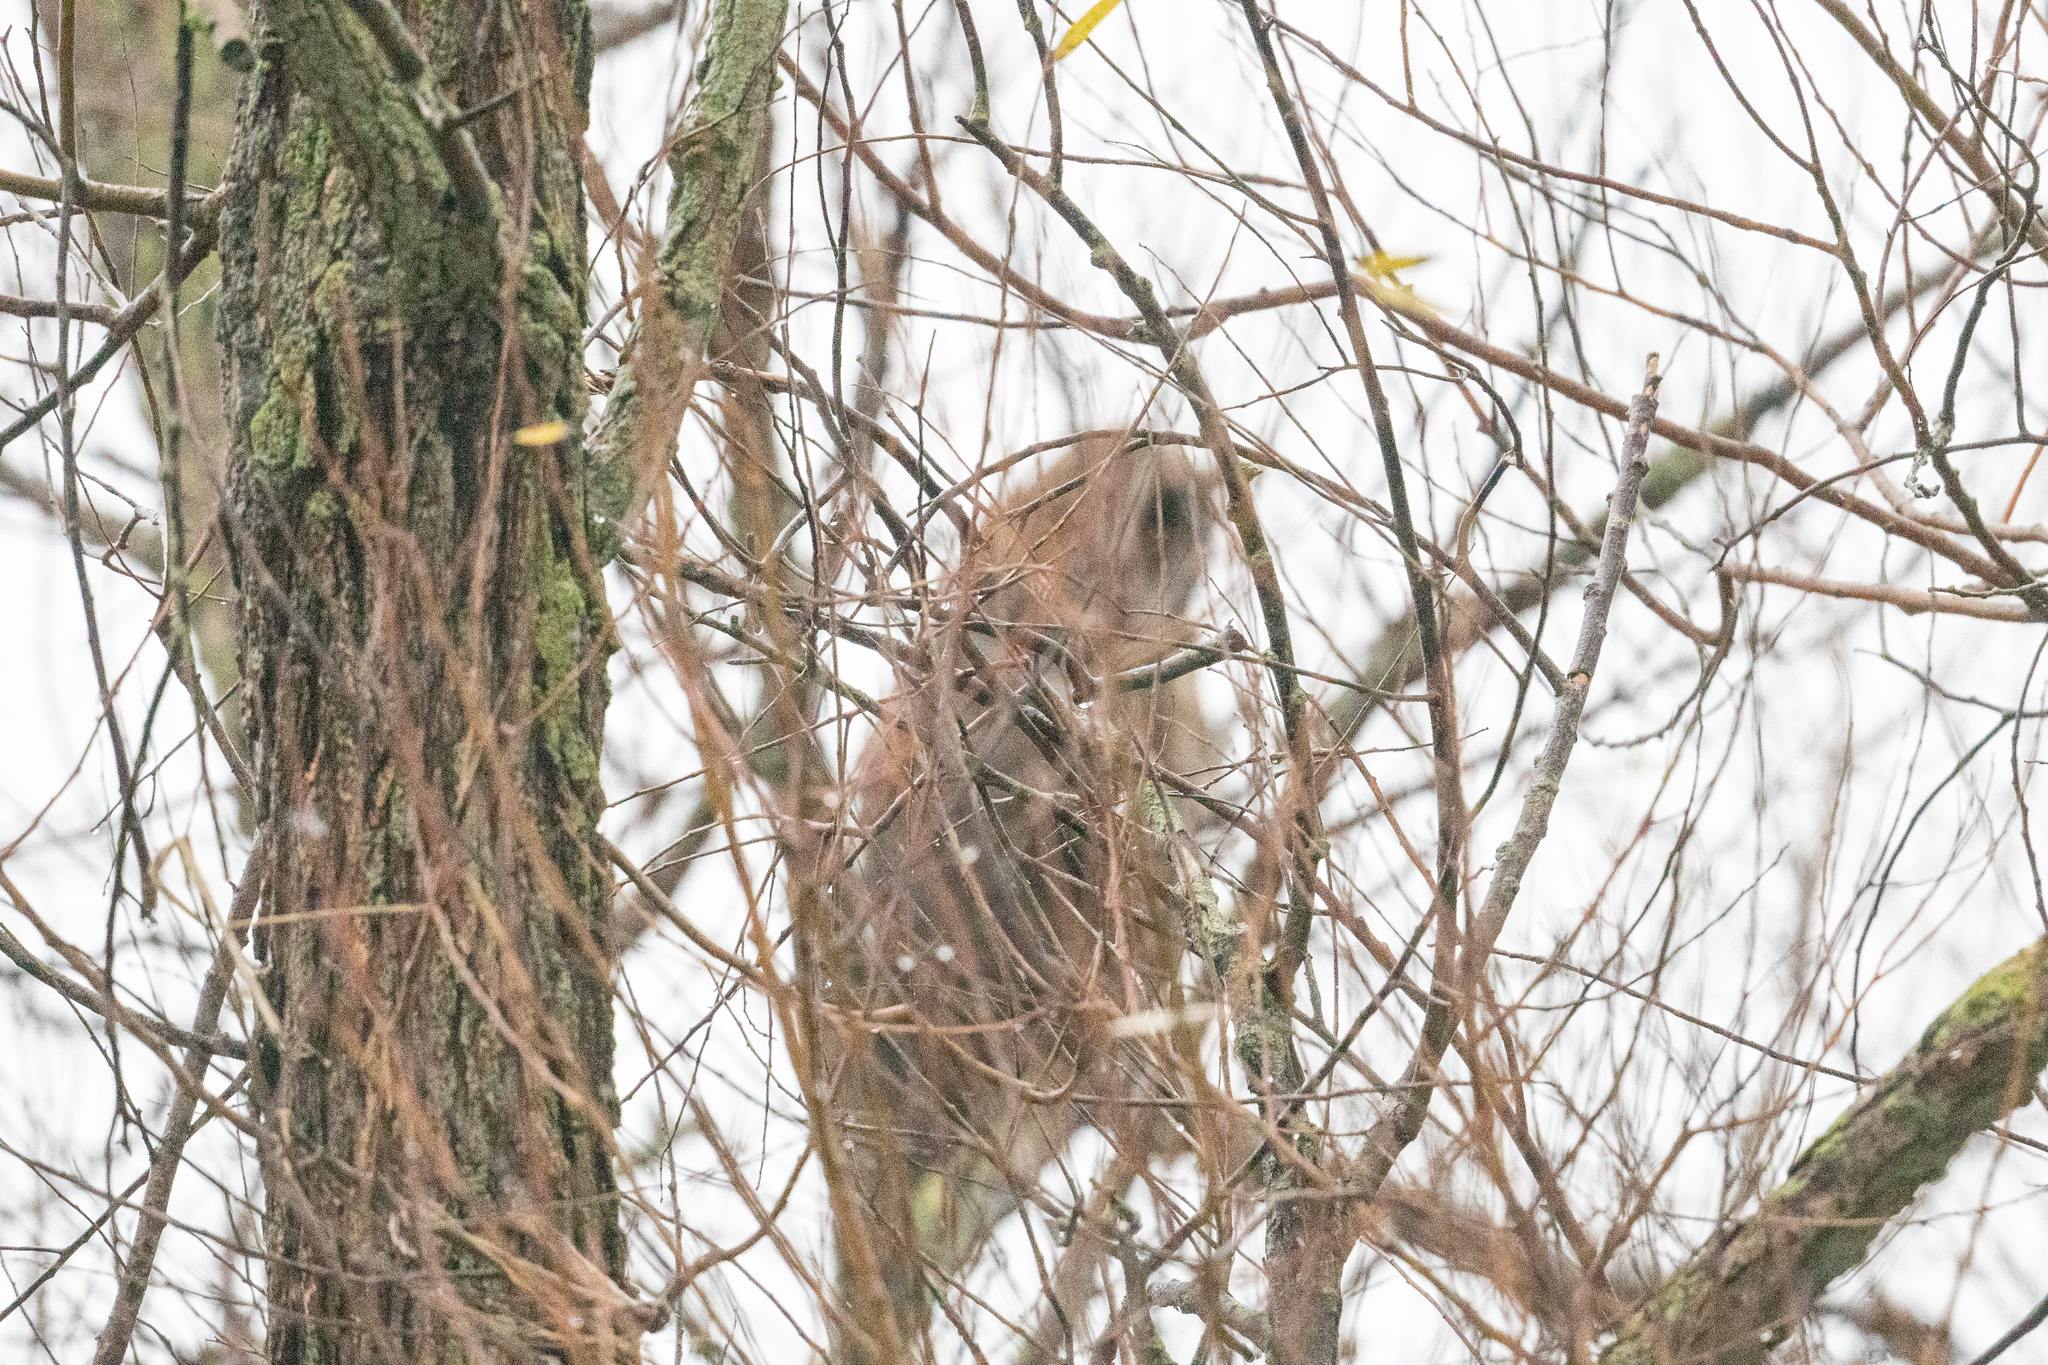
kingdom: Animalia
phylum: Chordata
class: Aves
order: Strigiformes
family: Tytonidae
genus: Tyto
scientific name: Tyto alba
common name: Barn owl
